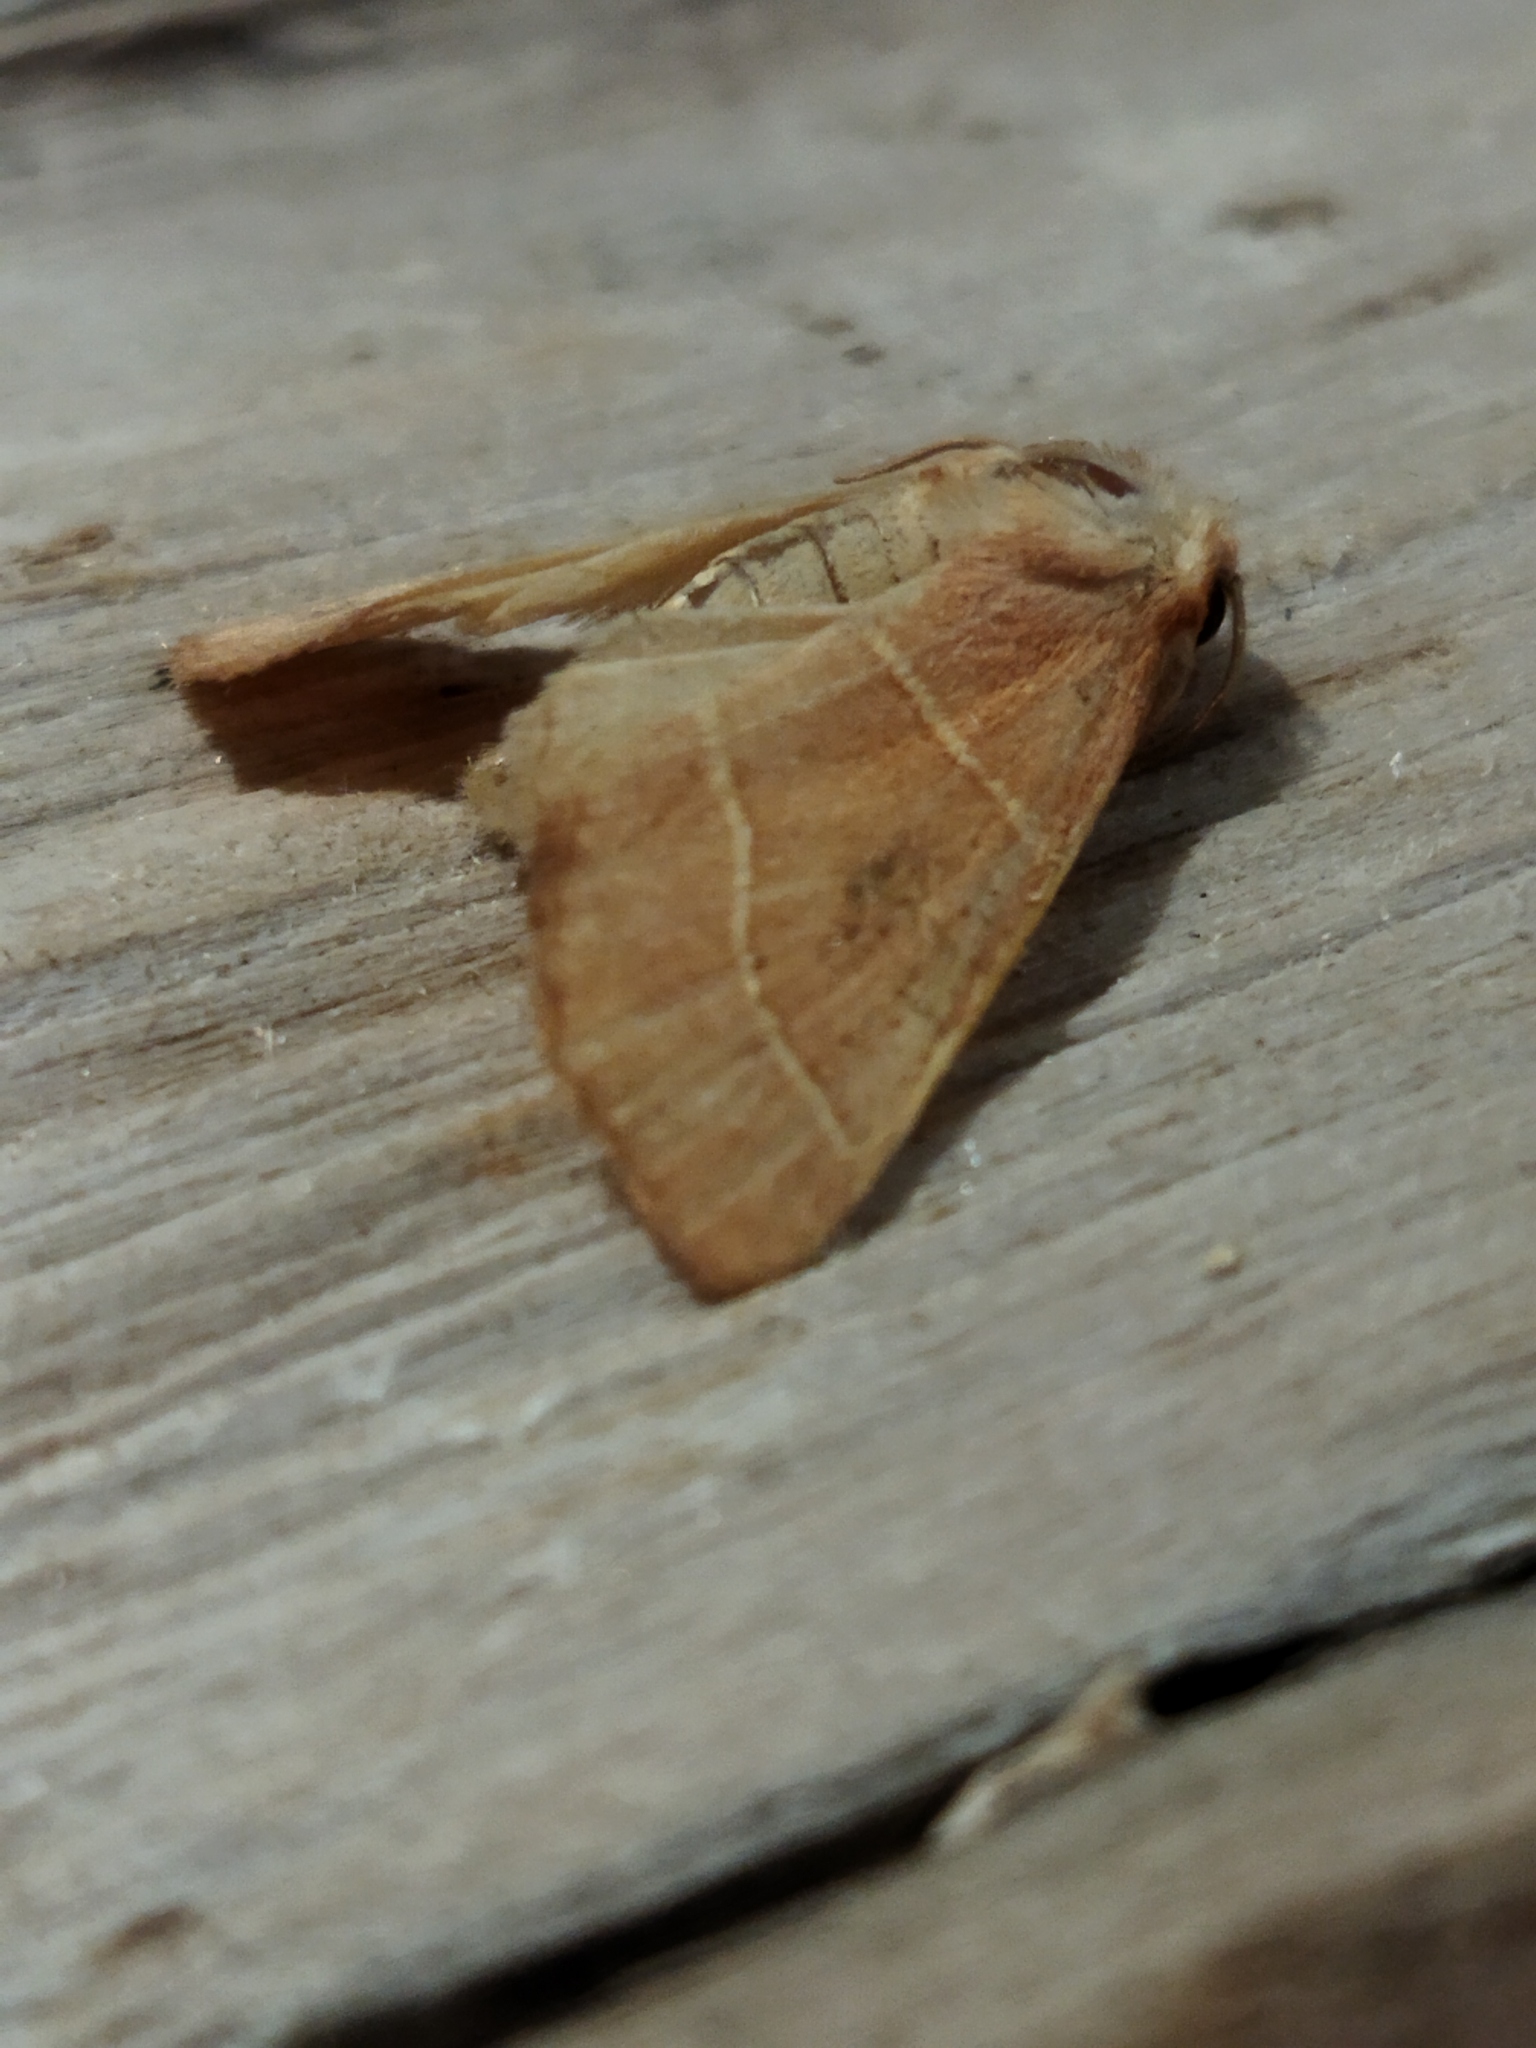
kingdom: Animalia
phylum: Arthropoda
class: Insecta
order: Lepidoptera
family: Noctuidae
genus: Atethmia
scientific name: Atethmia centrago
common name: Centre-barred sallow
